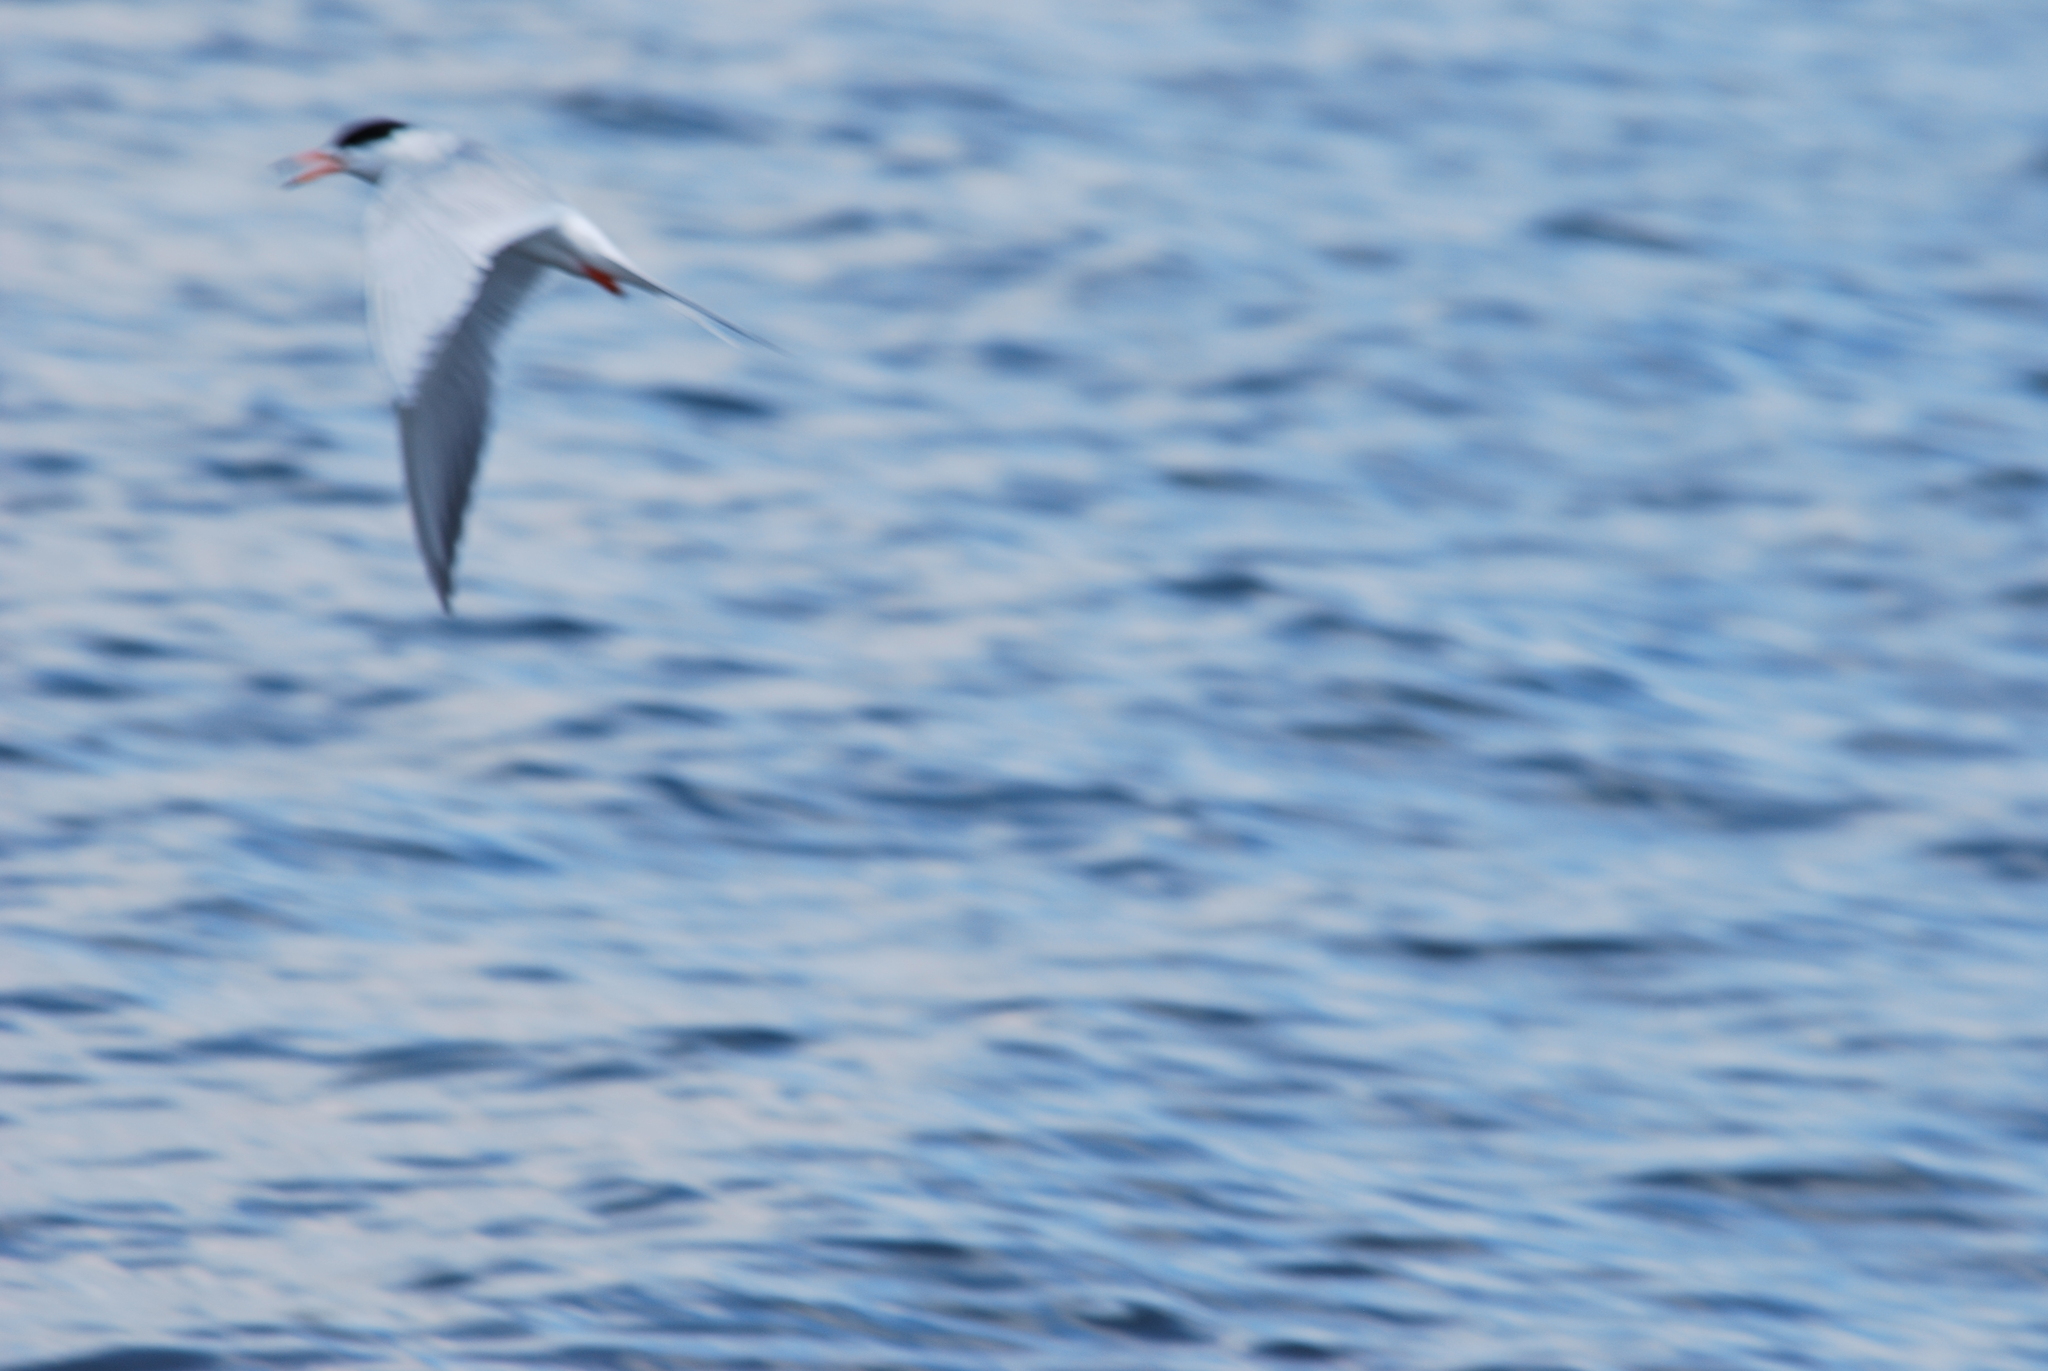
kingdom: Animalia
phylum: Chordata
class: Aves
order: Charadriiformes
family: Laridae
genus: Sterna
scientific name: Sterna forsteri
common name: Forster's tern
